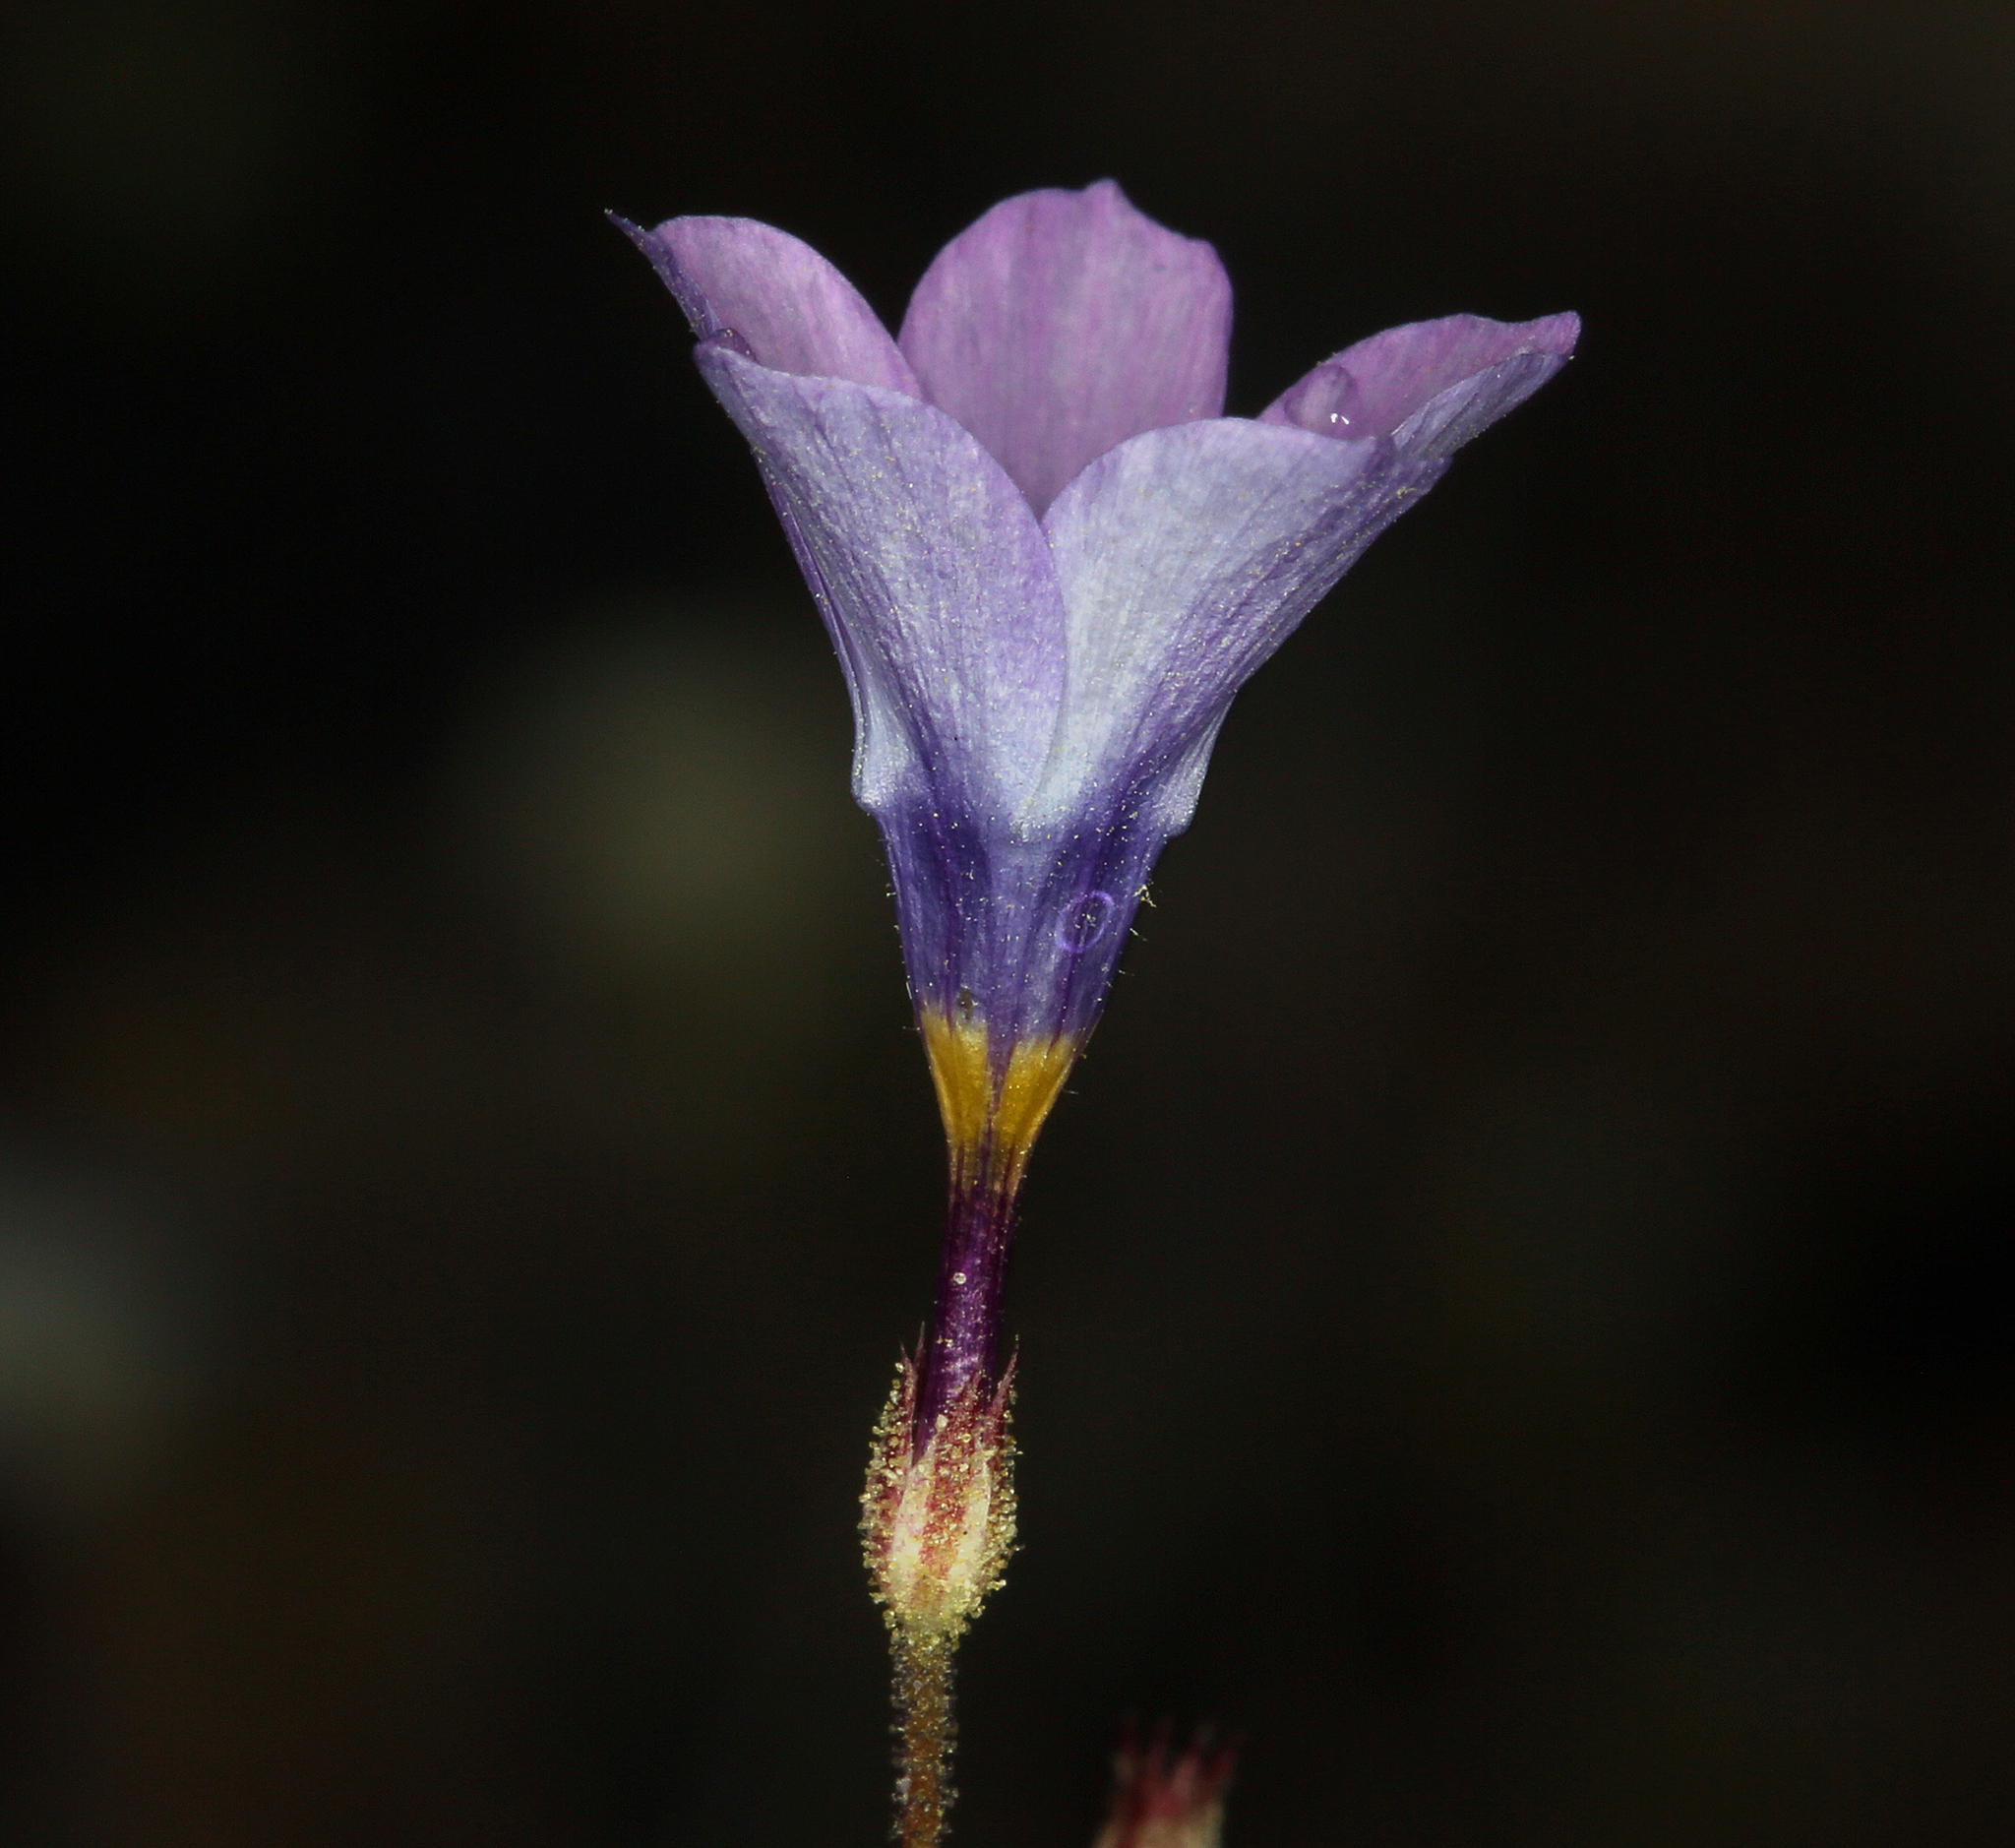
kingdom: Plantae
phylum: Tracheophyta
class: Magnoliopsida
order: Ericales
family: Polemoniaceae
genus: Gilia
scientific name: Gilia cana
